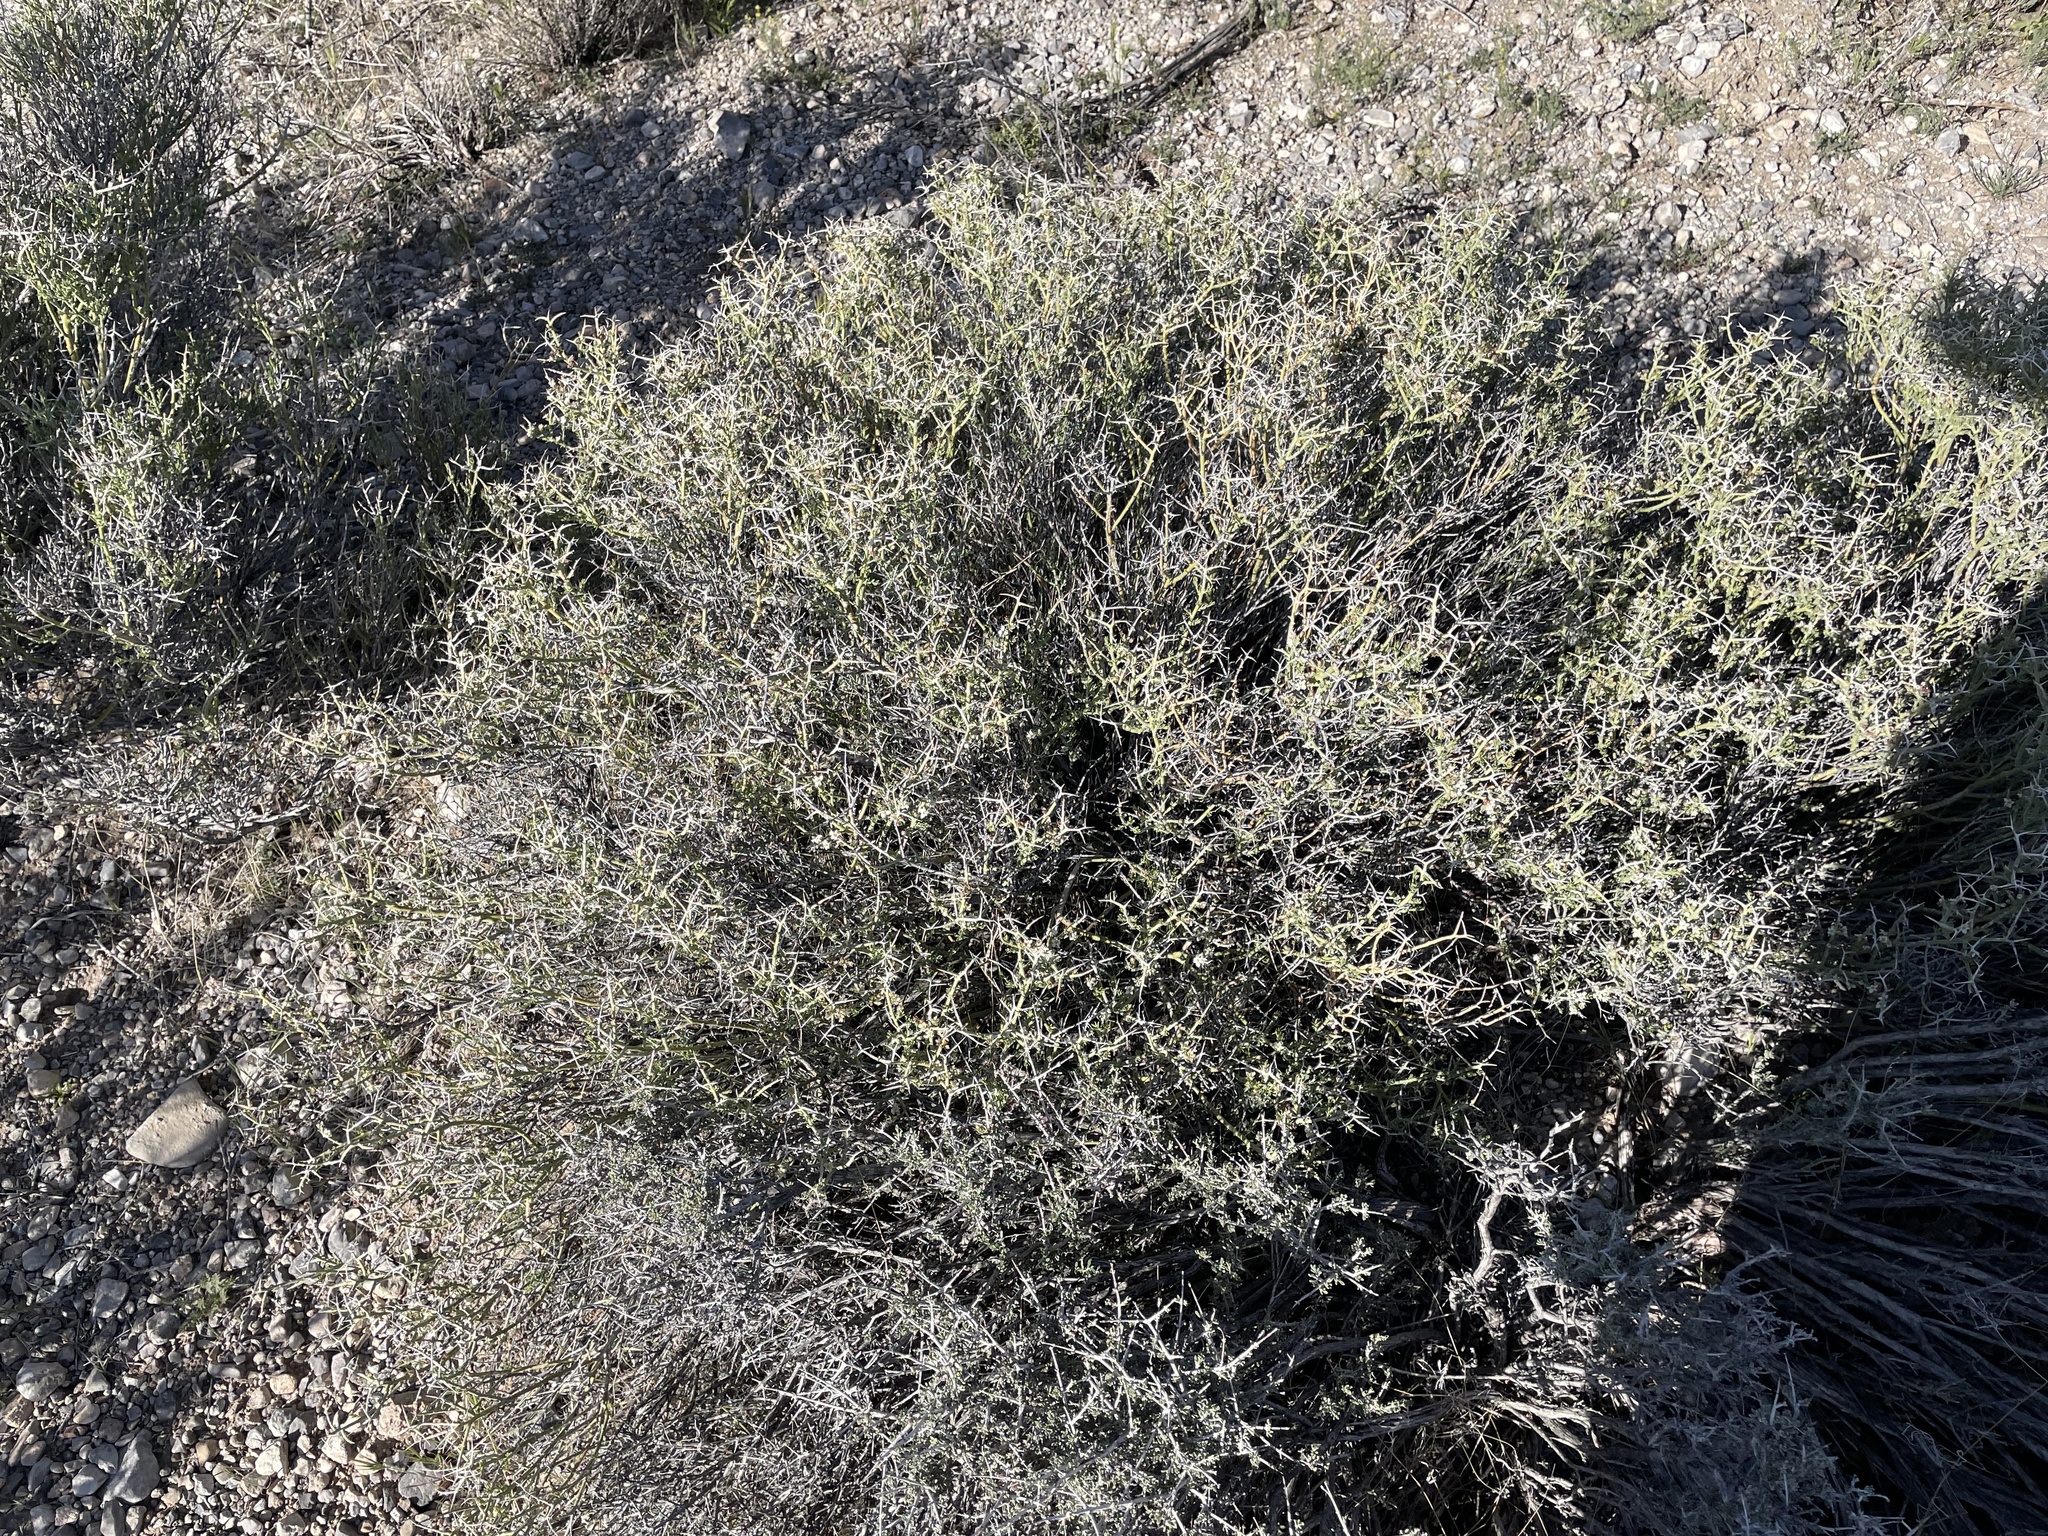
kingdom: Plantae
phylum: Tracheophyta
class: Magnoliopsida
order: Lamiales
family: Oleaceae
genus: Menodora
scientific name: Menodora spinescens
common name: Spiny menodora
